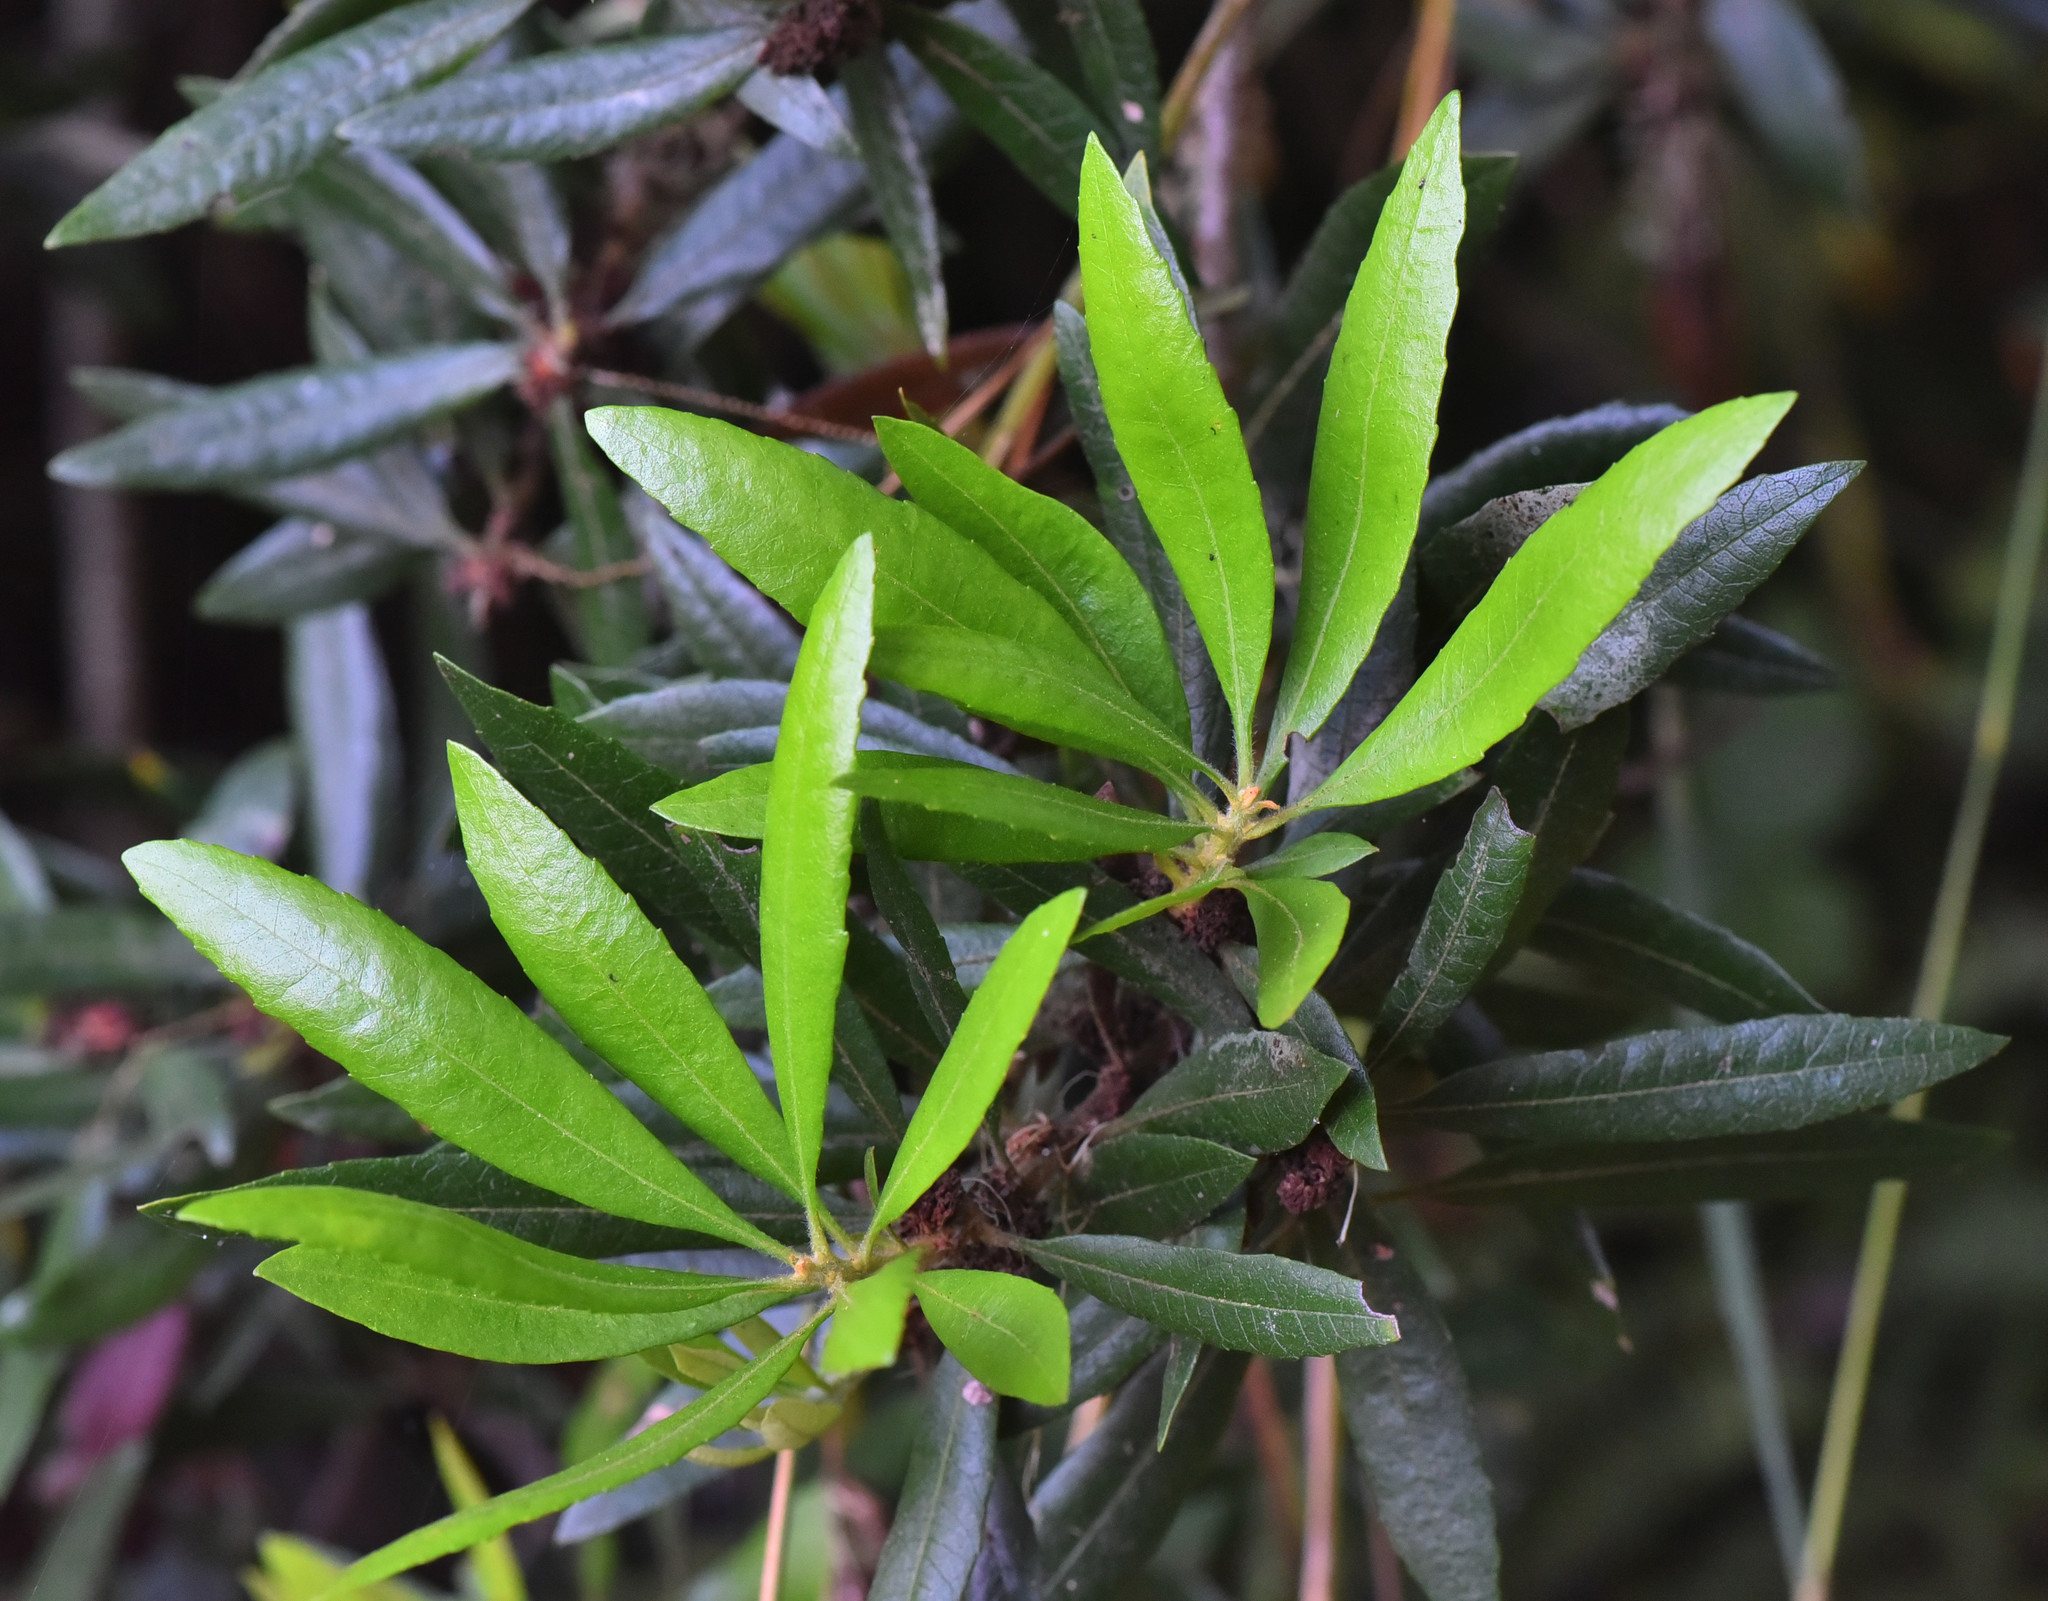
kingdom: Plantae
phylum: Tracheophyta
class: Magnoliopsida
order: Fagales
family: Myricaceae
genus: Morella
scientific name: Morella californica
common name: California wax-myrtle
